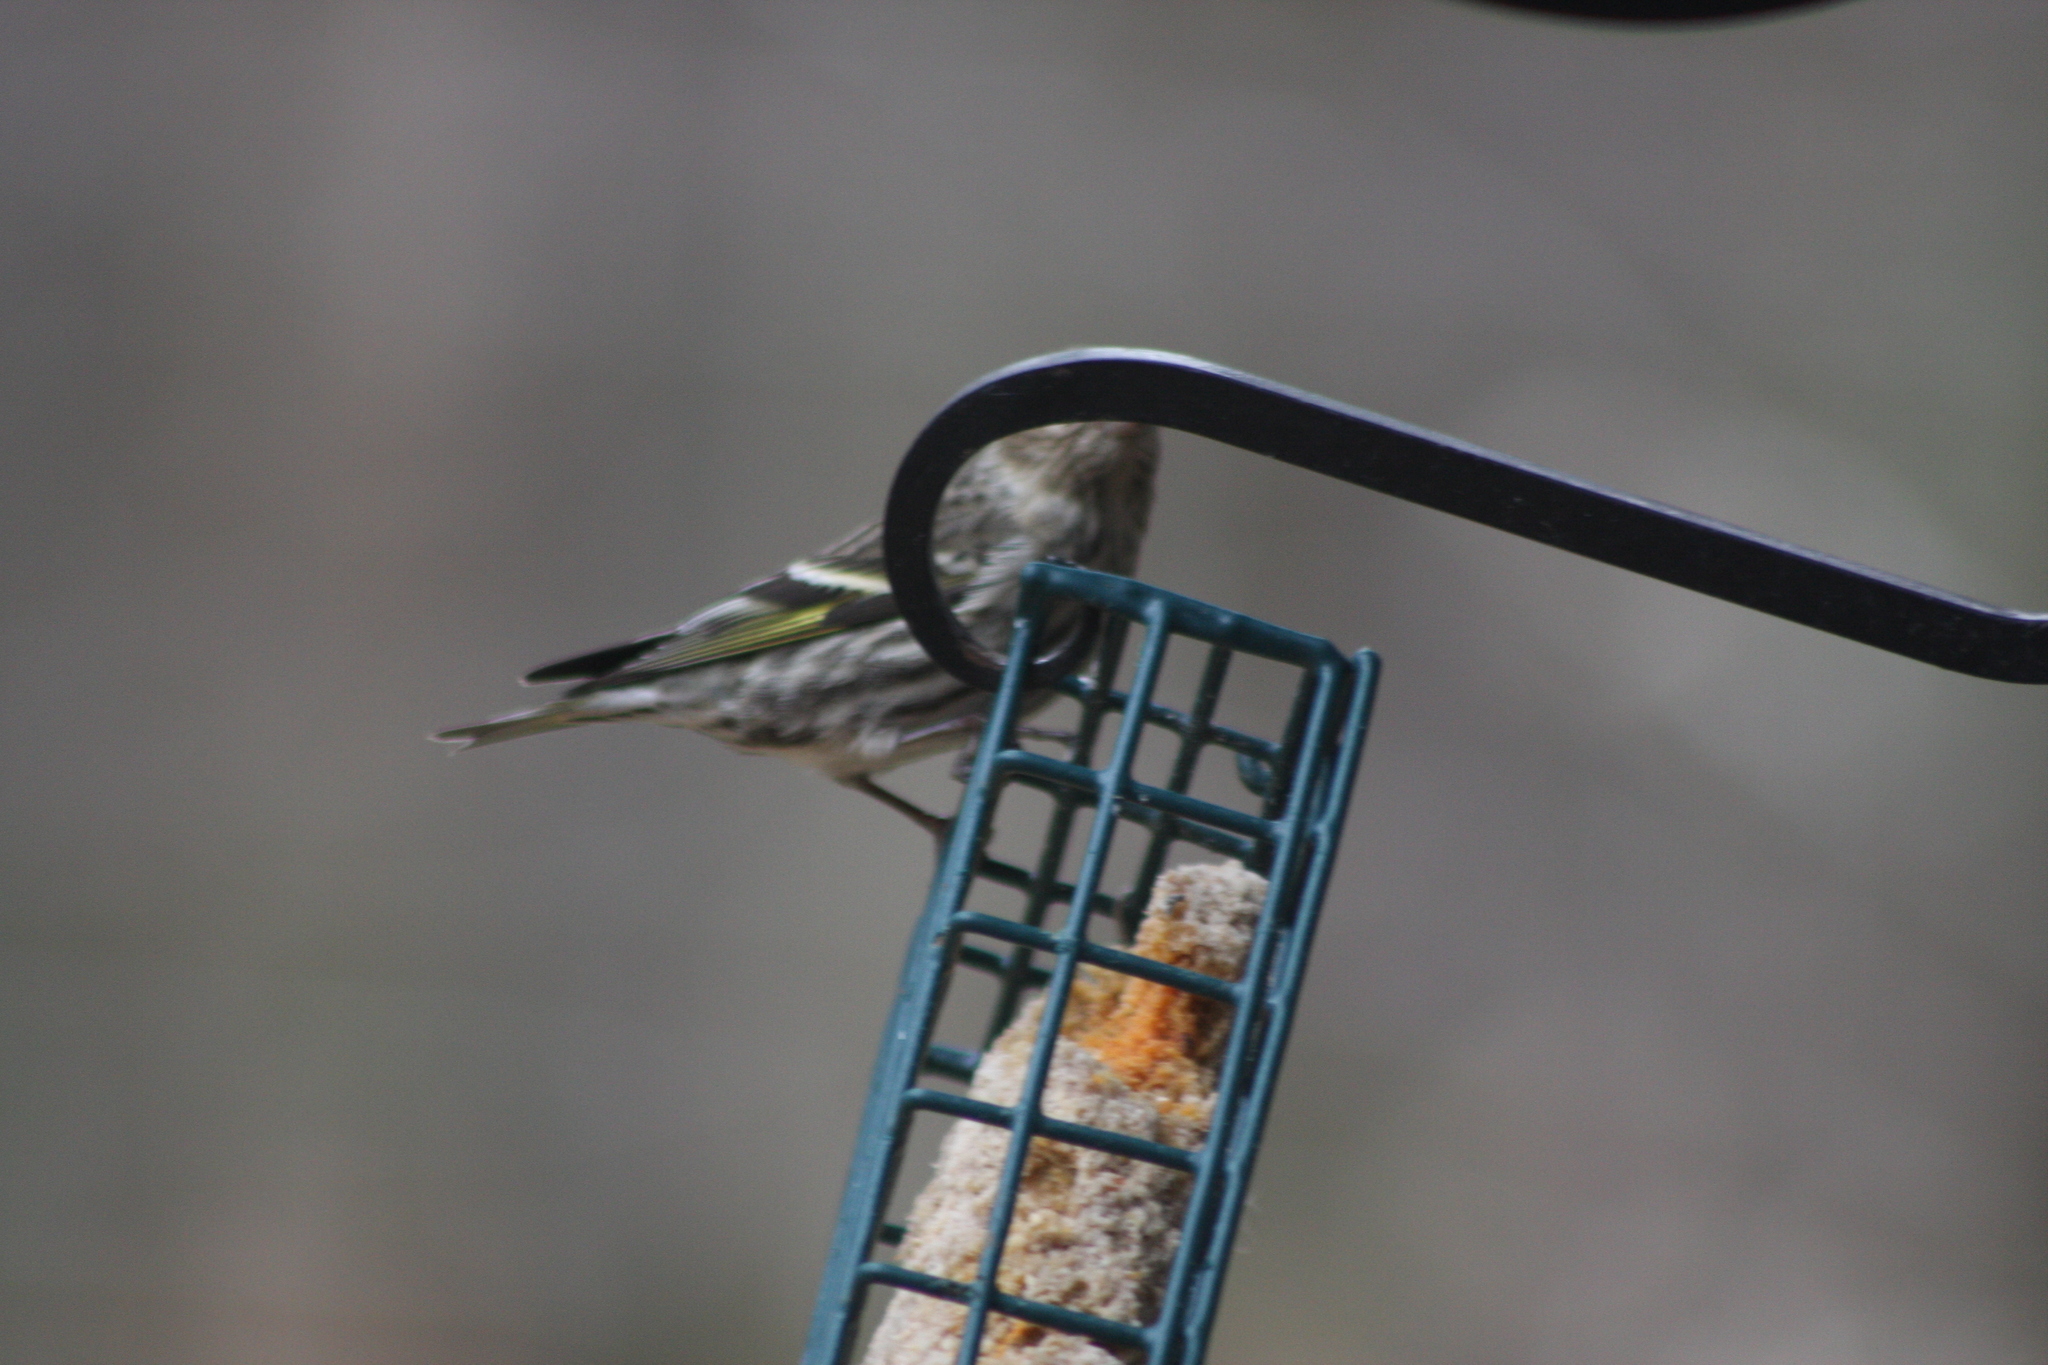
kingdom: Animalia
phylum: Chordata
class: Aves
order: Passeriformes
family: Fringillidae
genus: Spinus
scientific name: Spinus pinus
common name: Pine siskin
